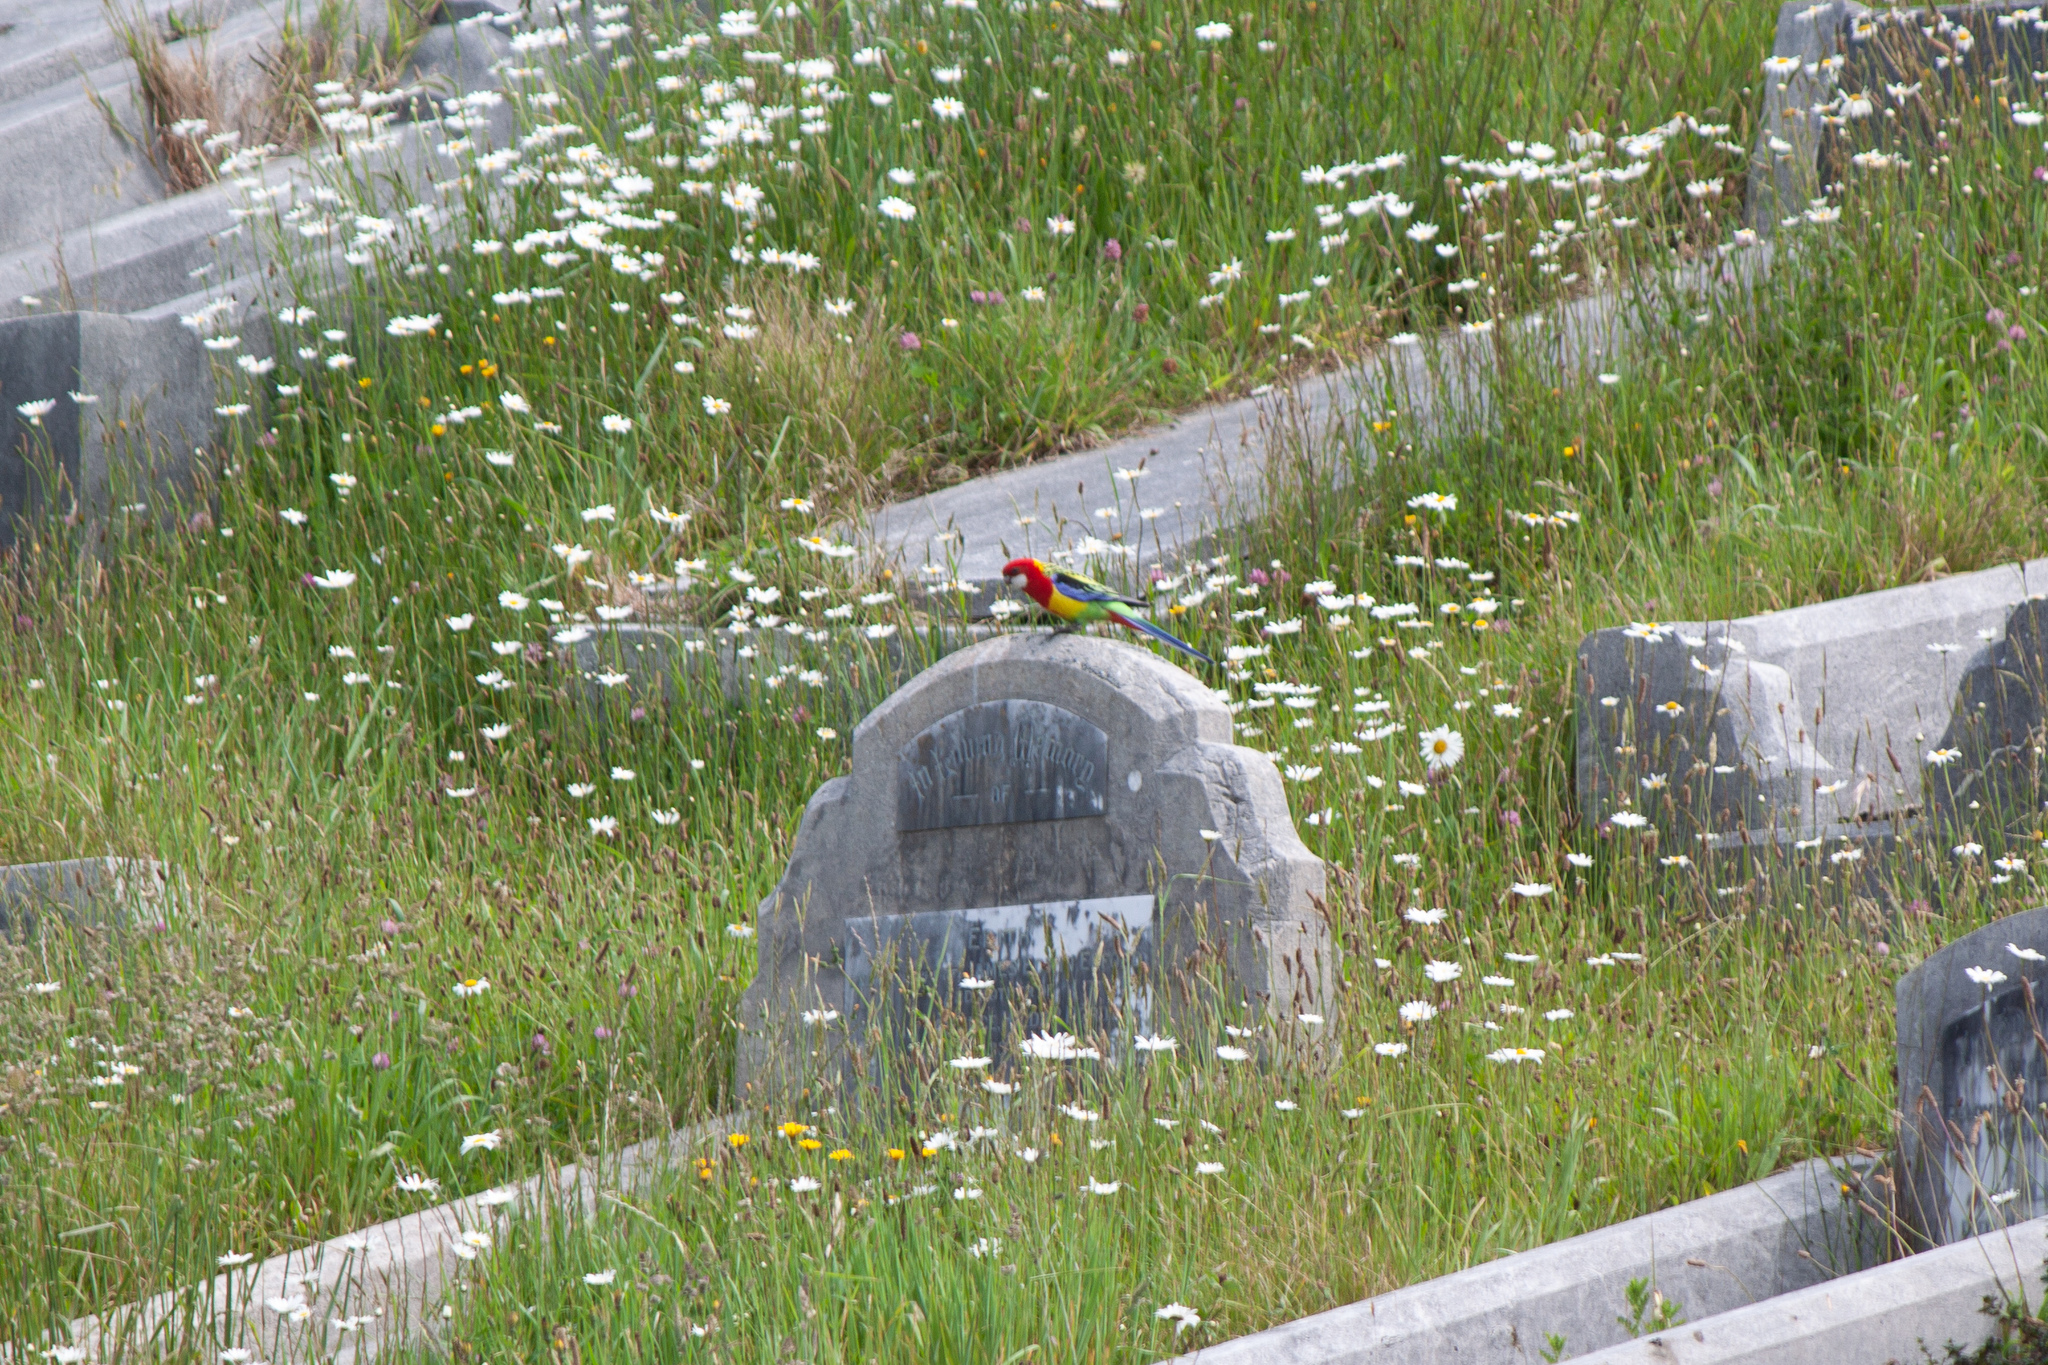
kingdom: Animalia
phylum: Chordata
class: Aves
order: Psittaciformes
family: Psittacidae
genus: Platycercus
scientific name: Platycercus eximius
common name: Eastern rosella
